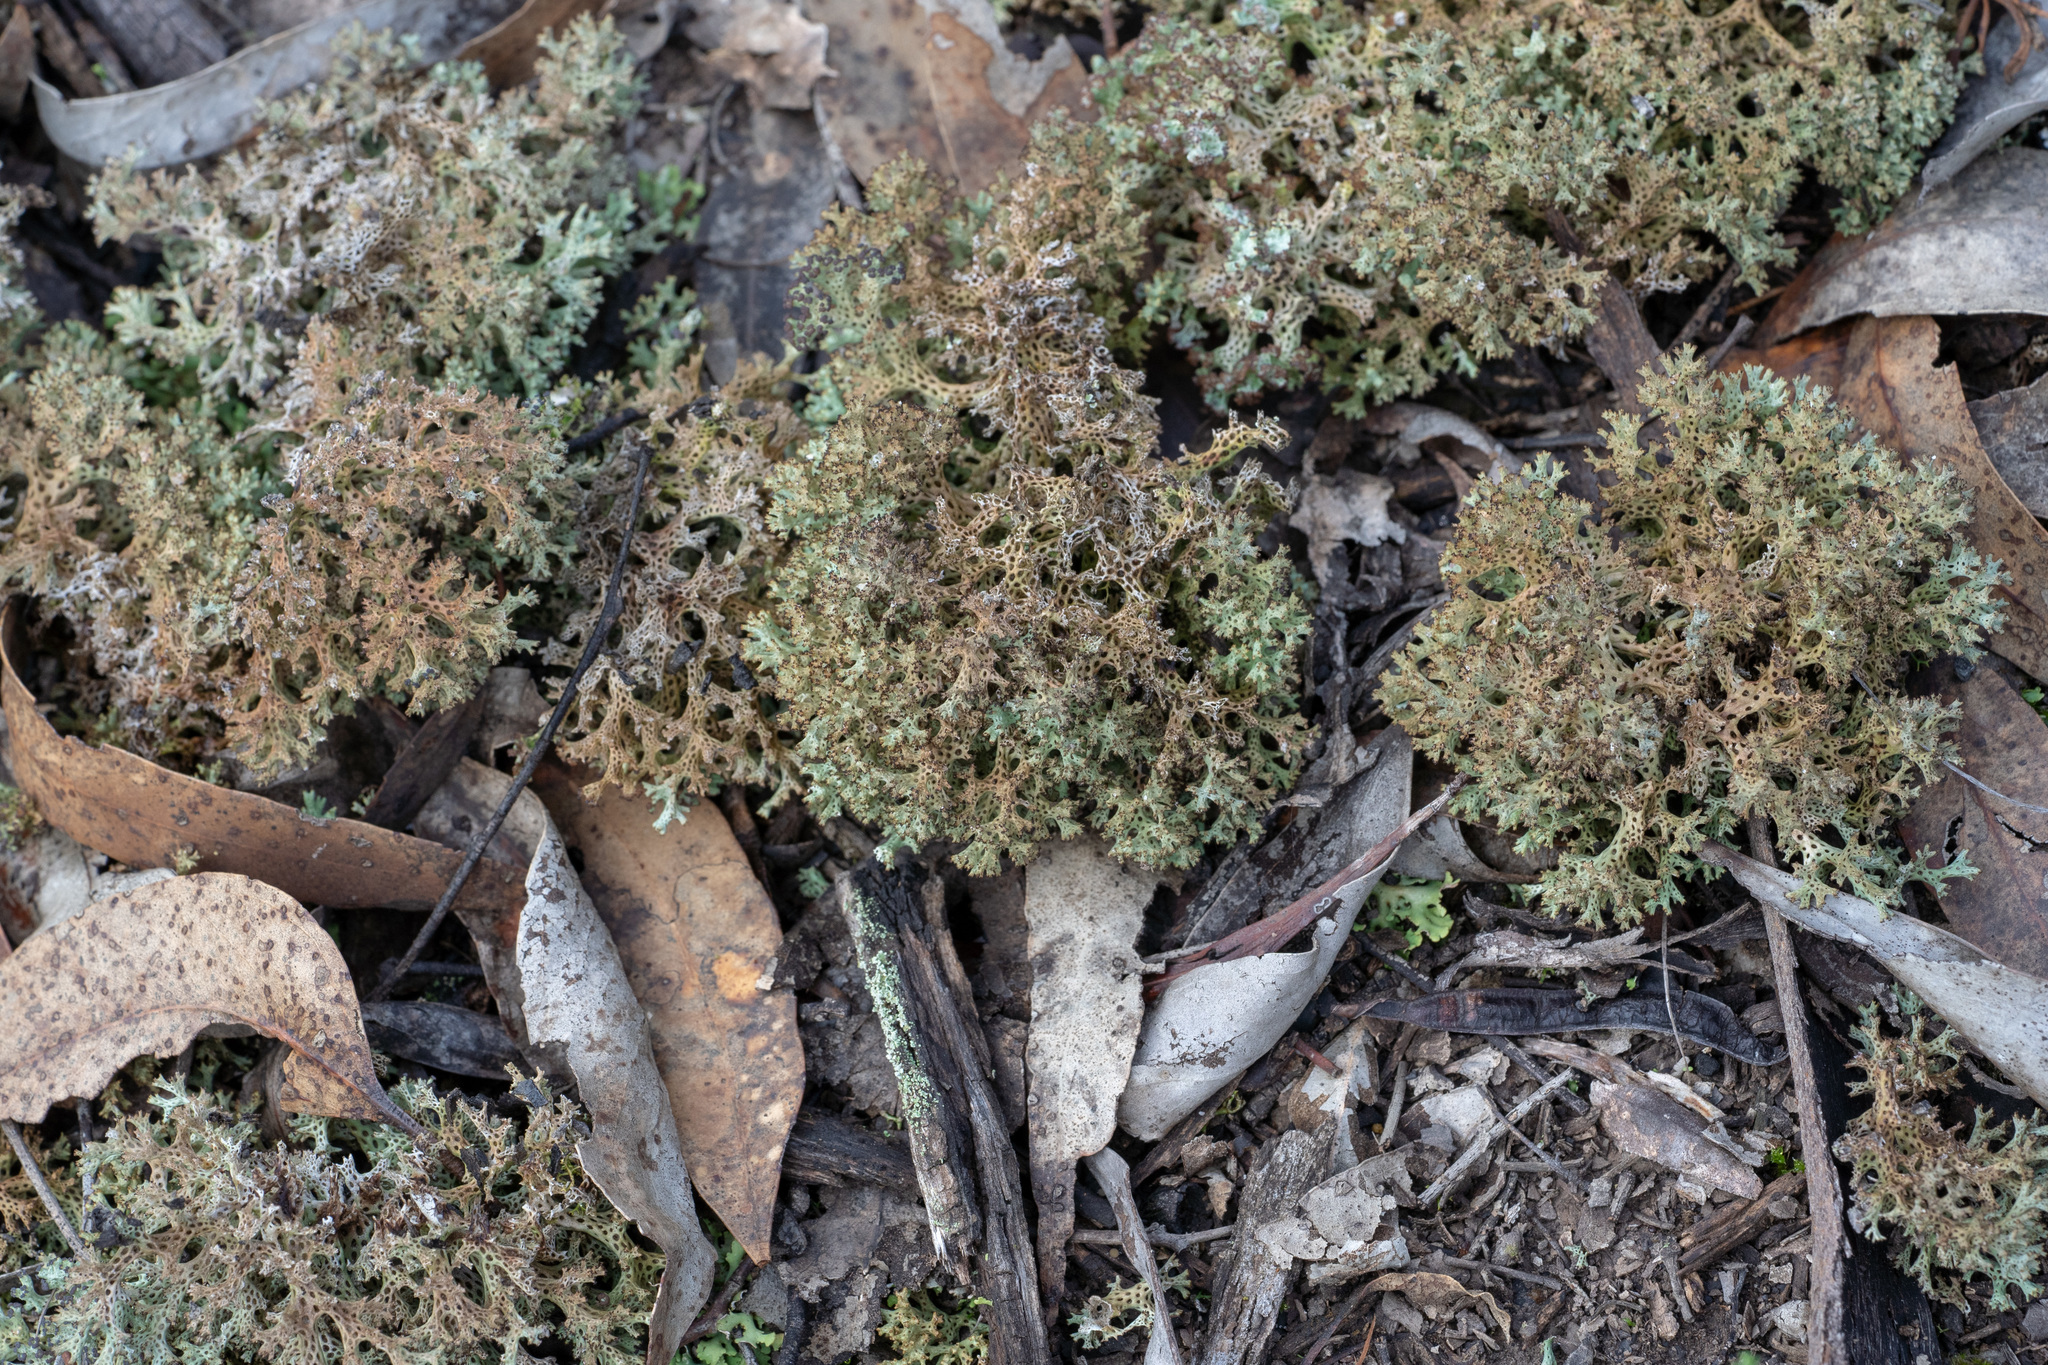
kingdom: Fungi
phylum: Ascomycota
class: Lecanoromycetes
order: Lecanorales
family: Cladoniaceae
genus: Pulchrocladia
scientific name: Pulchrocladia corallaizon
